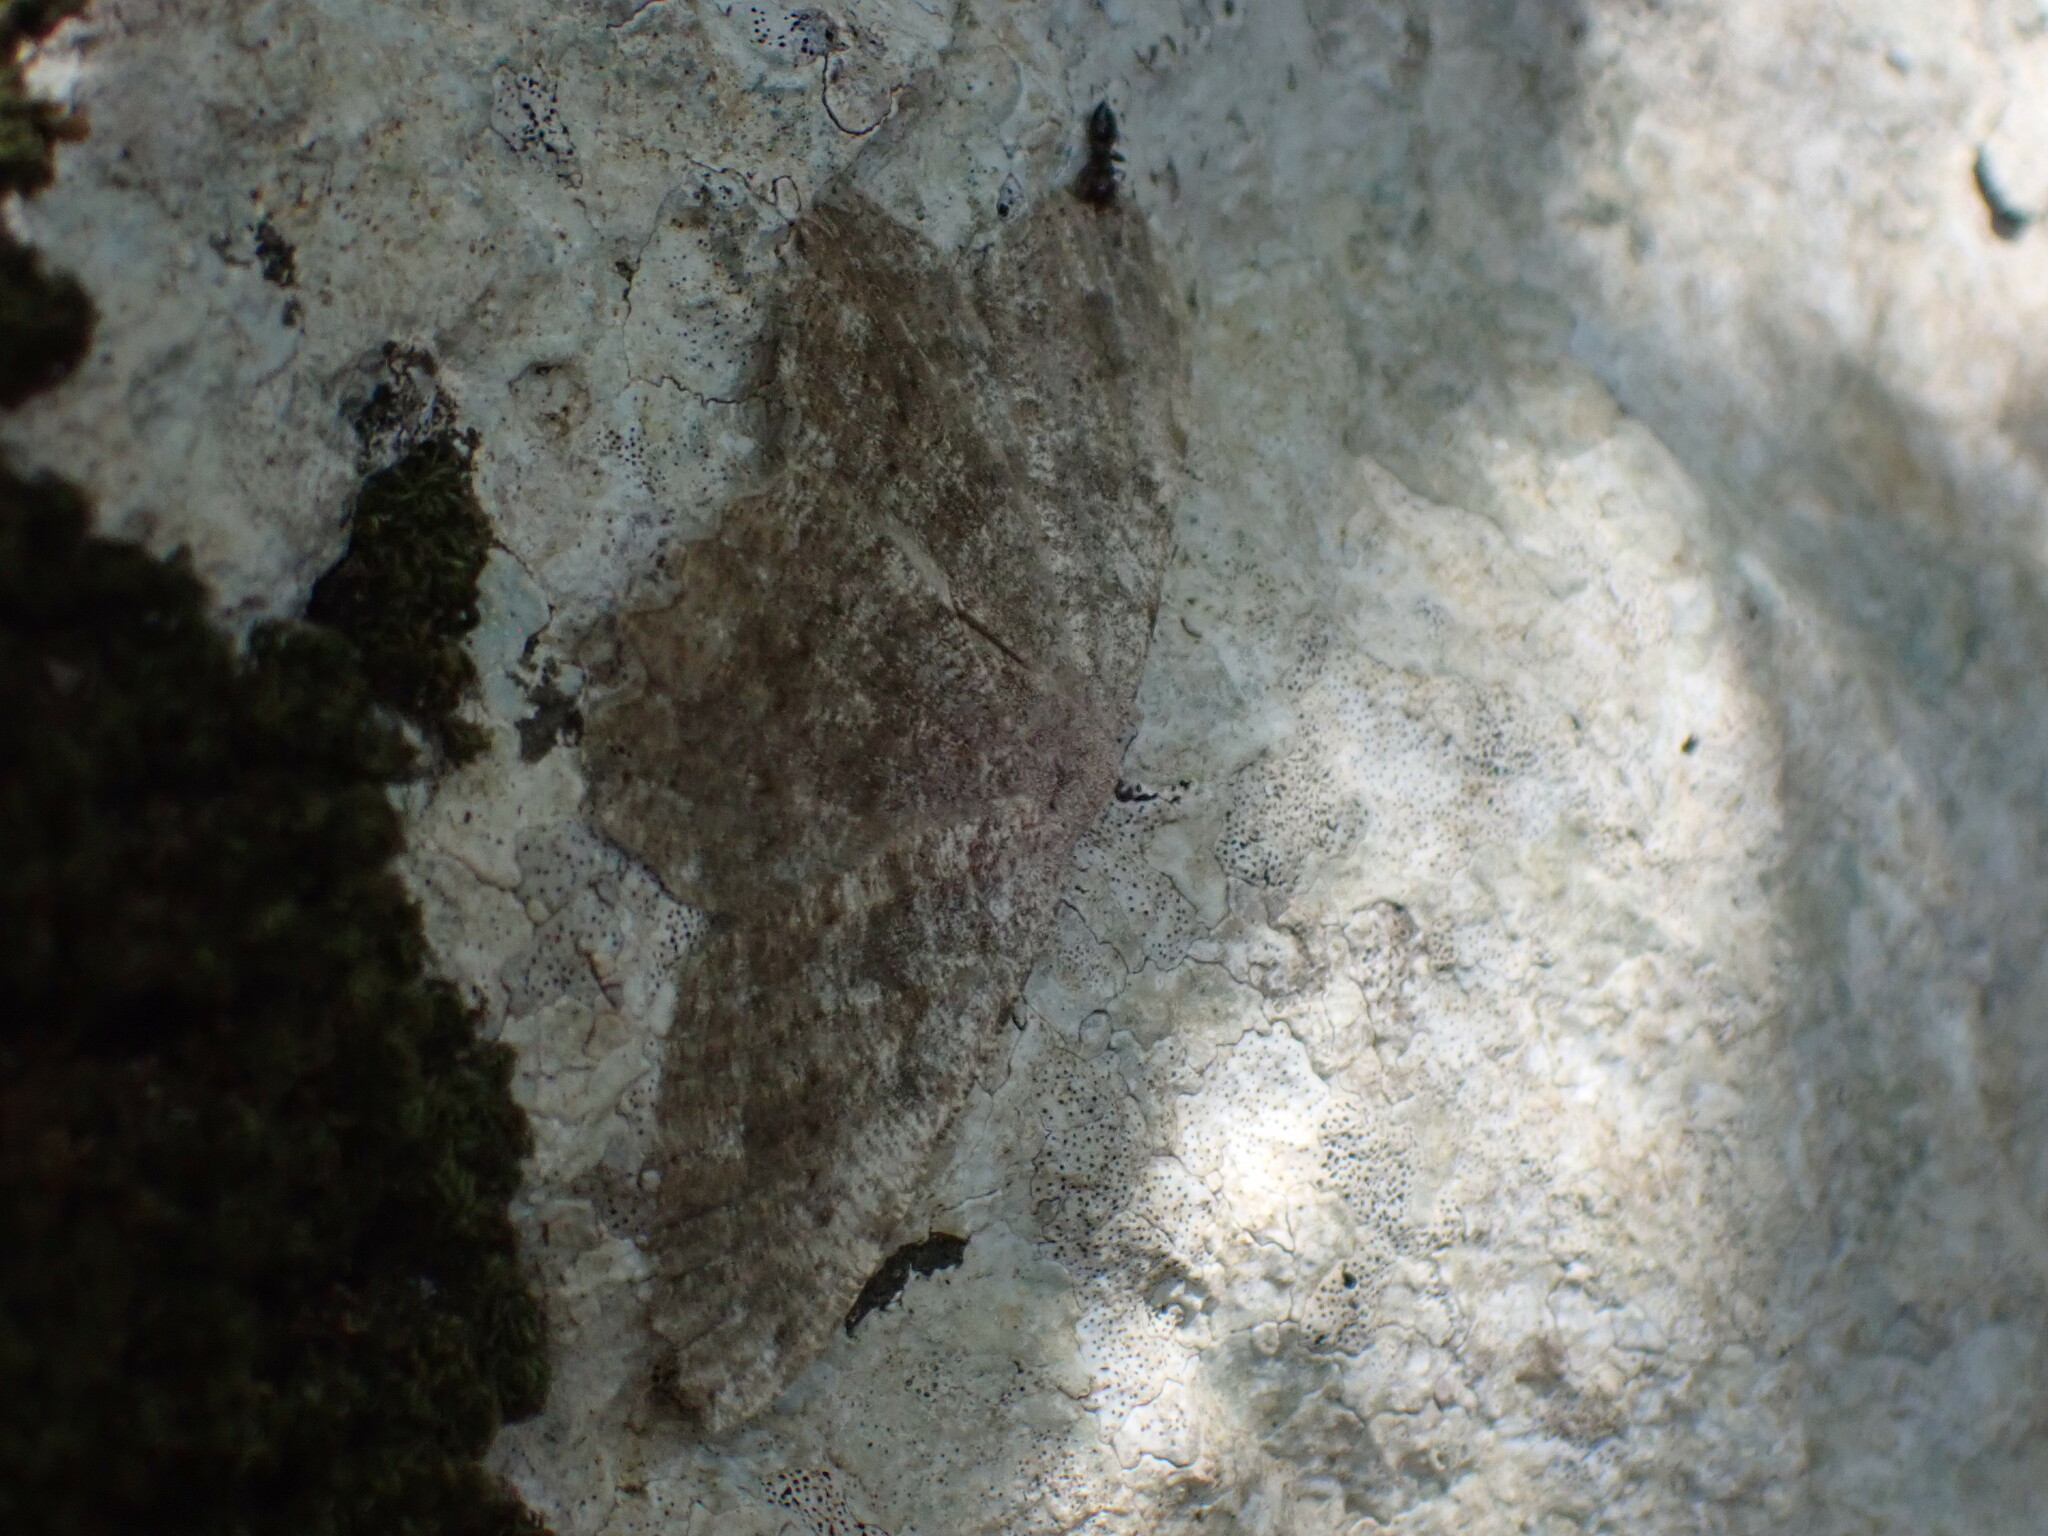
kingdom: Animalia
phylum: Arthropoda
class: Insecta
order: Lepidoptera
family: Geometridae
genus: Gnophos
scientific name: Gnophos sartata
